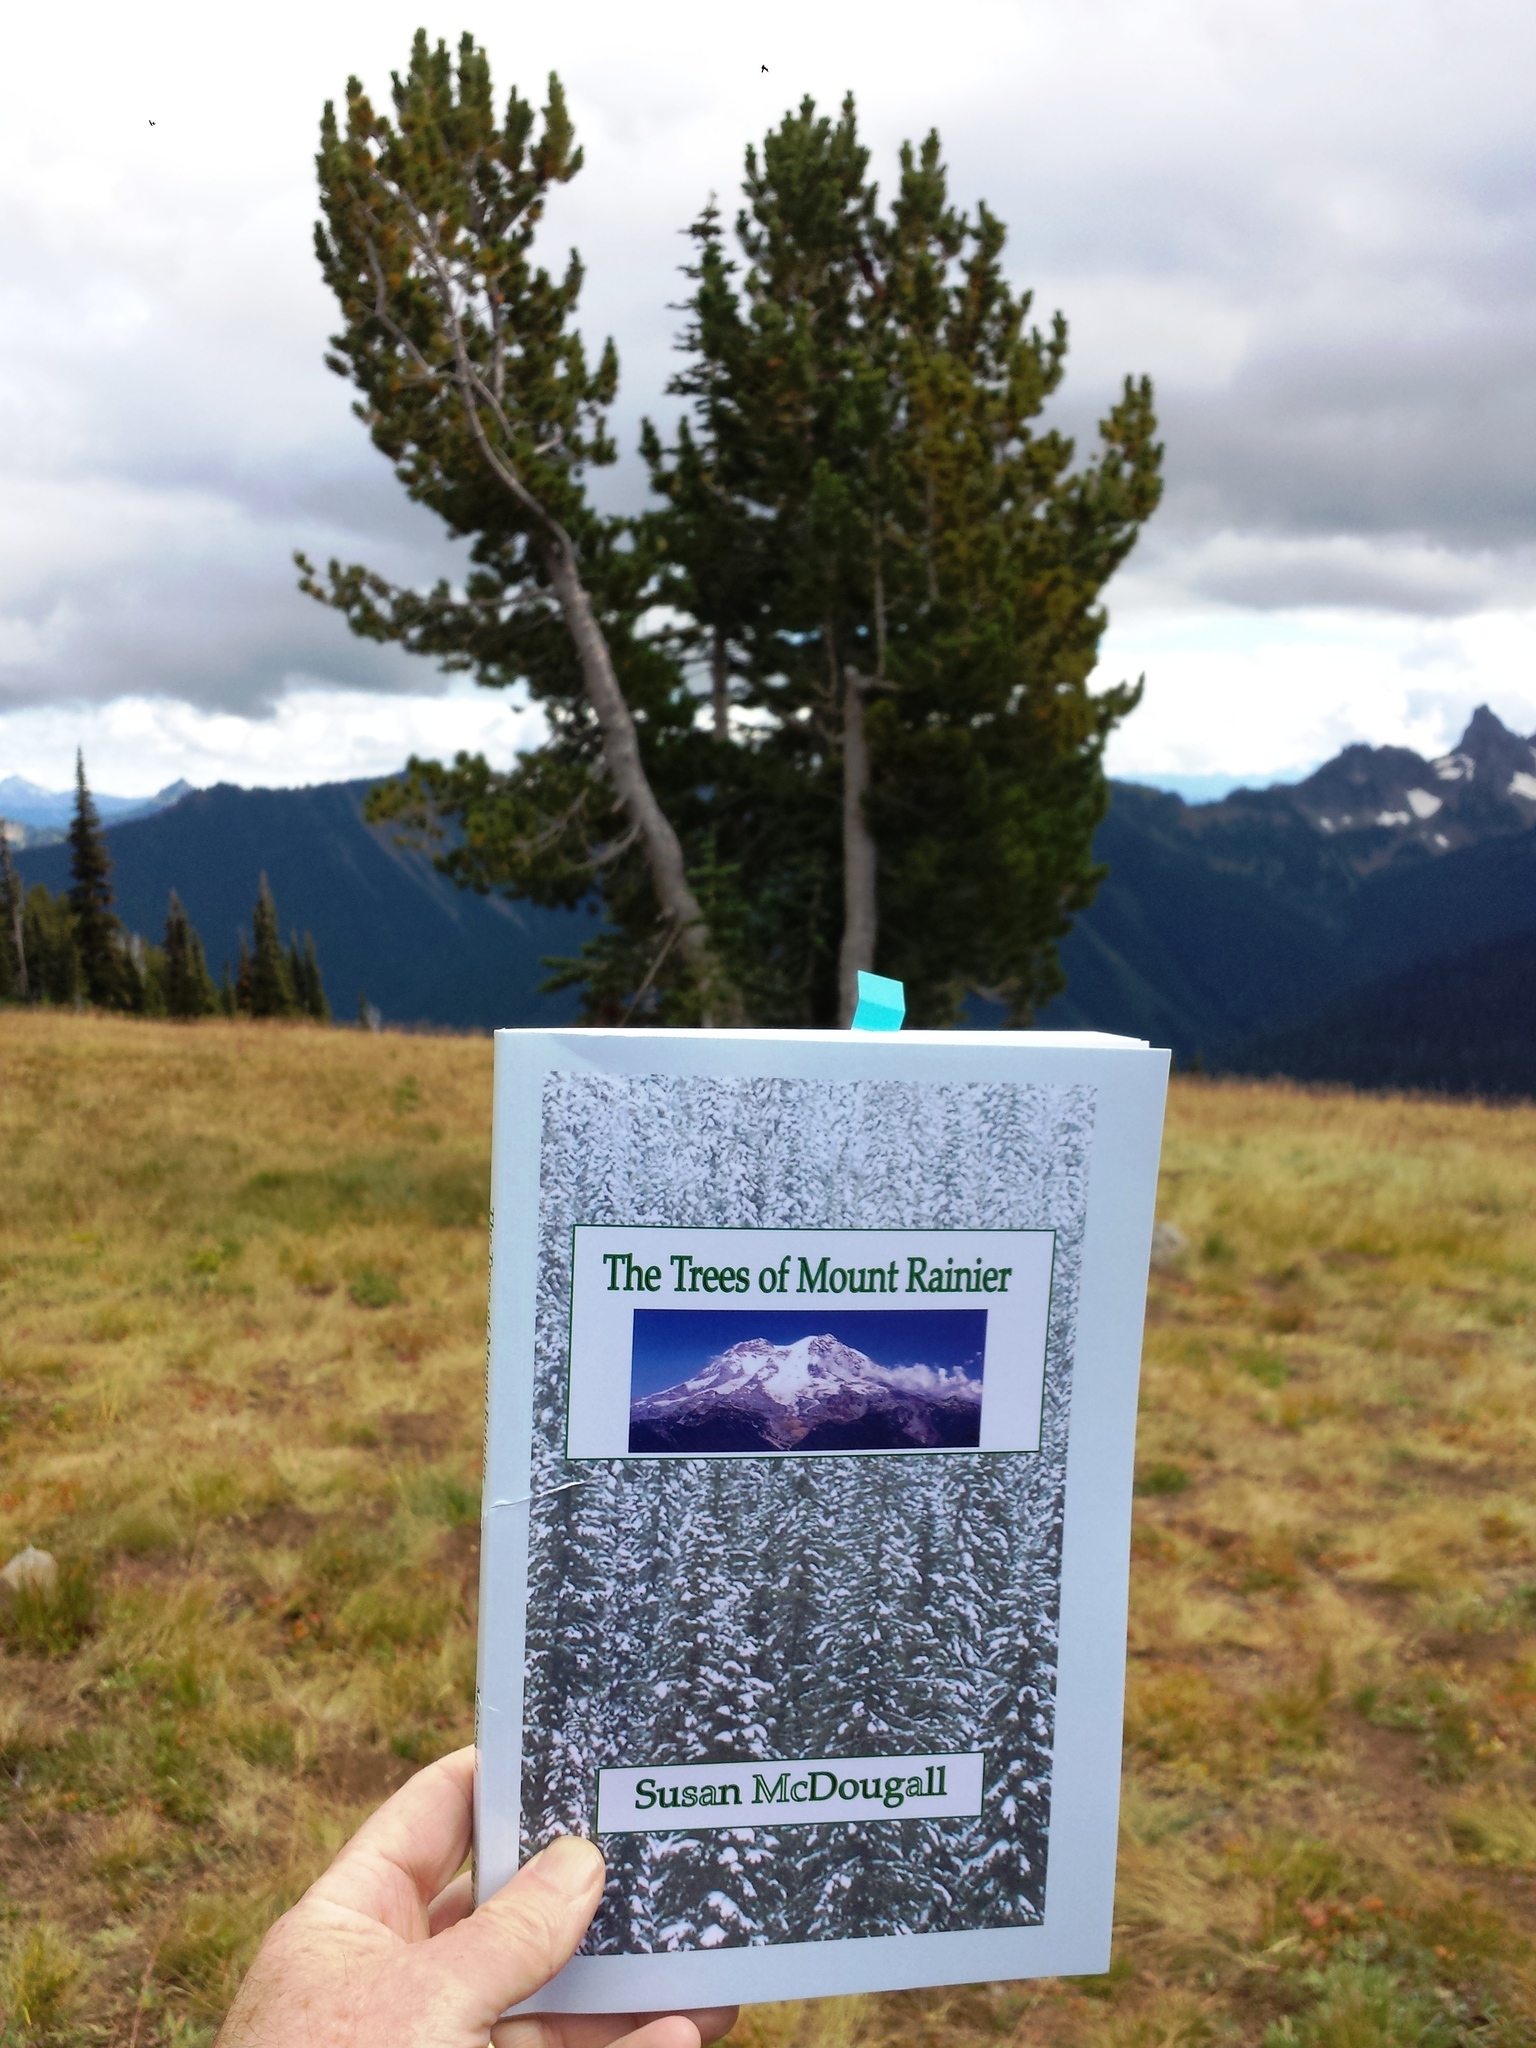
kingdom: Plantae
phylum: Tracheophyta
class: Pinopsida
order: Pinales
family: Pinaceae
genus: Pinus
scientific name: Pinus albicaulis
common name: Whitebark pine
